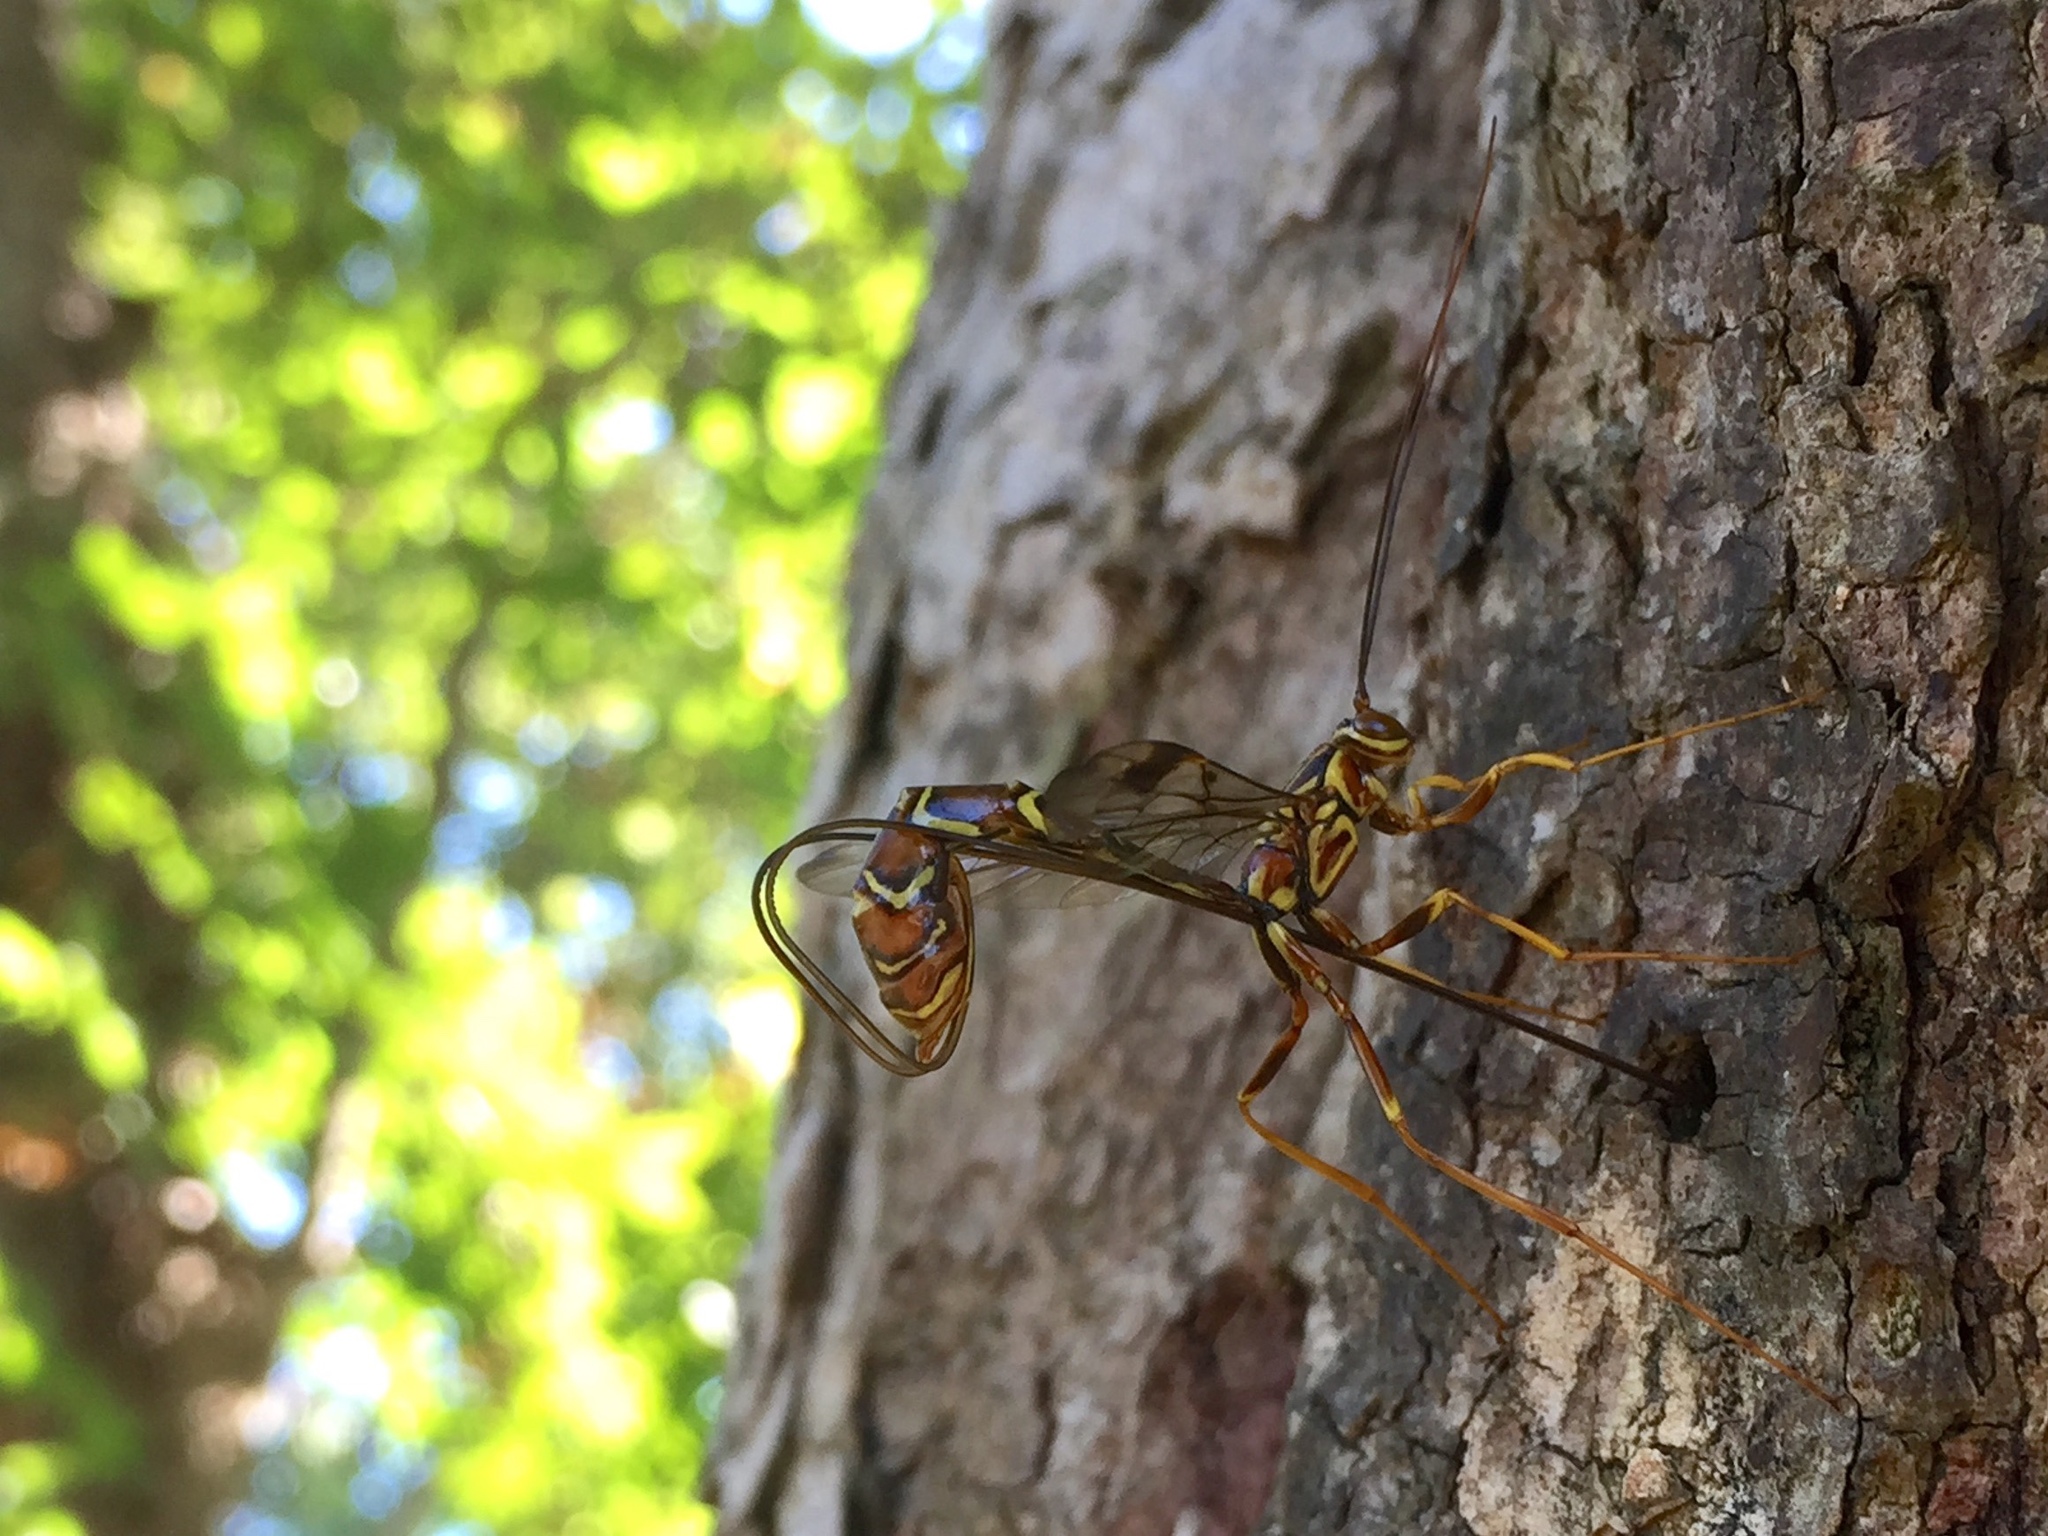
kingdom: Animalia
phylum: Arthropoda
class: Insecta
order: Hymenoptera
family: Ichneumonidae
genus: Megarhyssa
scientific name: Megarhyssa macrura
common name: Long-tailed giant ichneumonid wasp
